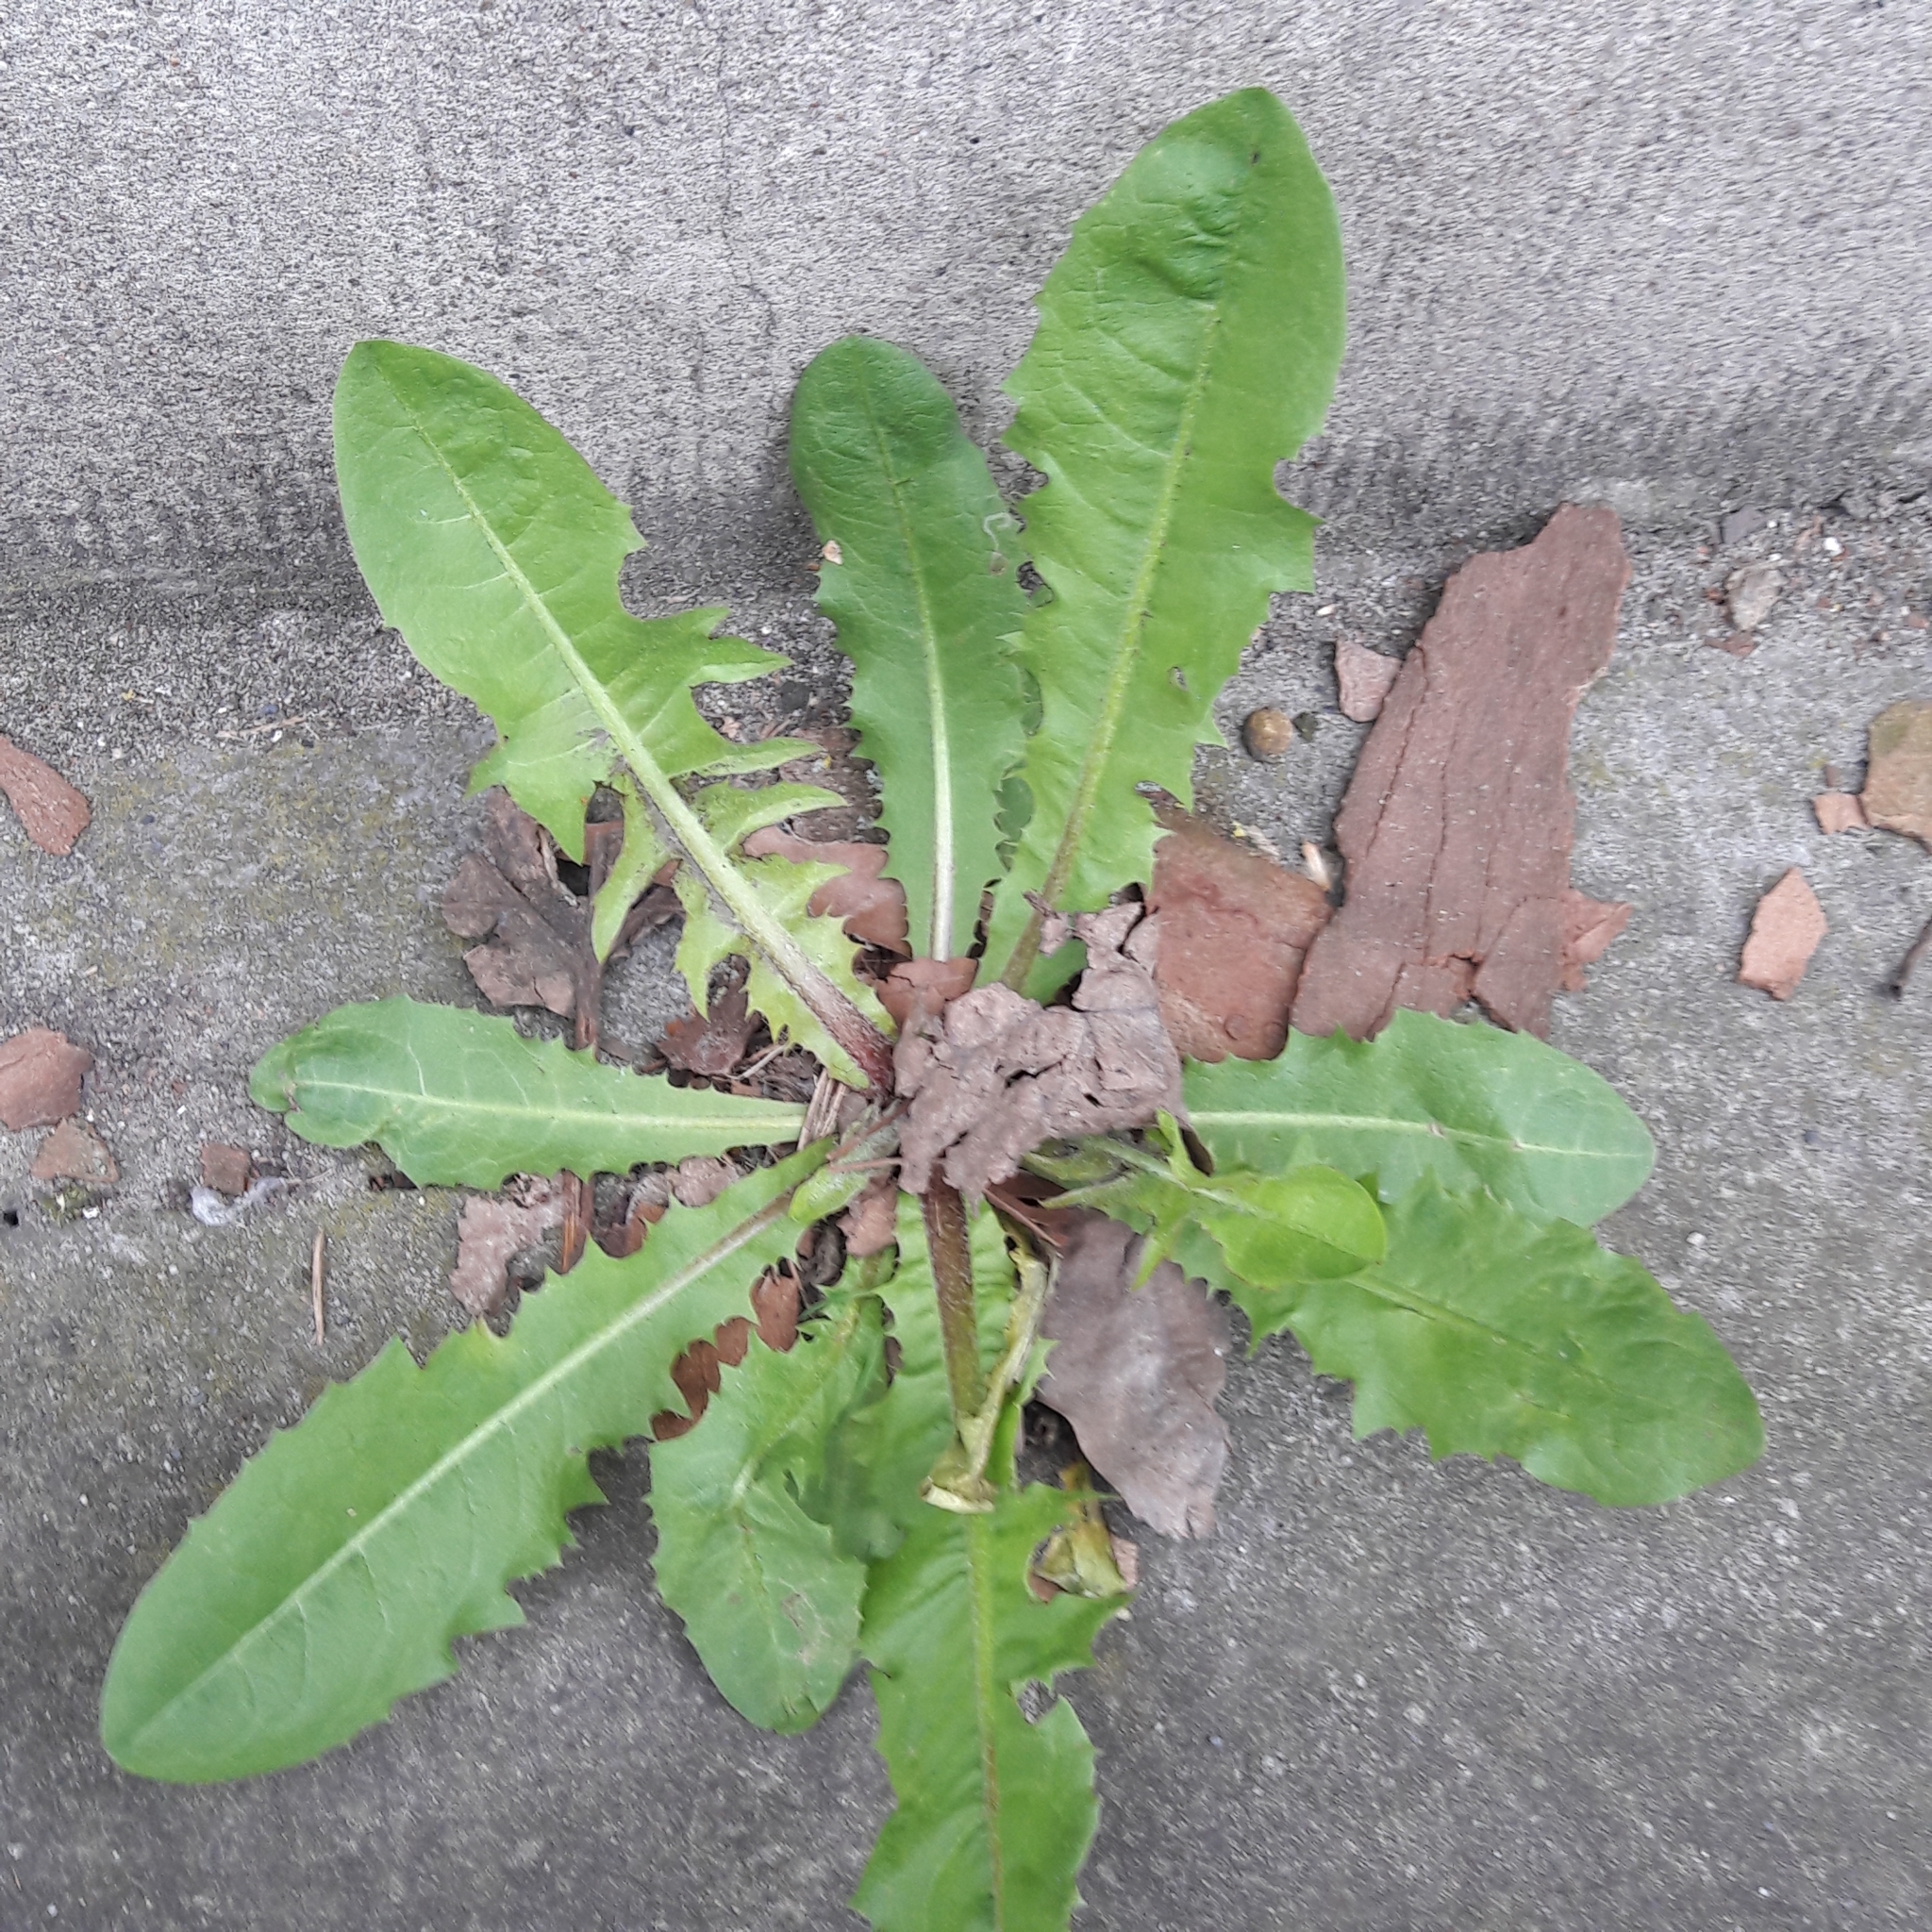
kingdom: Plantae
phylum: Tracheophyta
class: Magnoliopsida
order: Asterales
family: Asteraceae
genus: Taraxacum
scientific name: Taraxacum officinale
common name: Common dandelion
